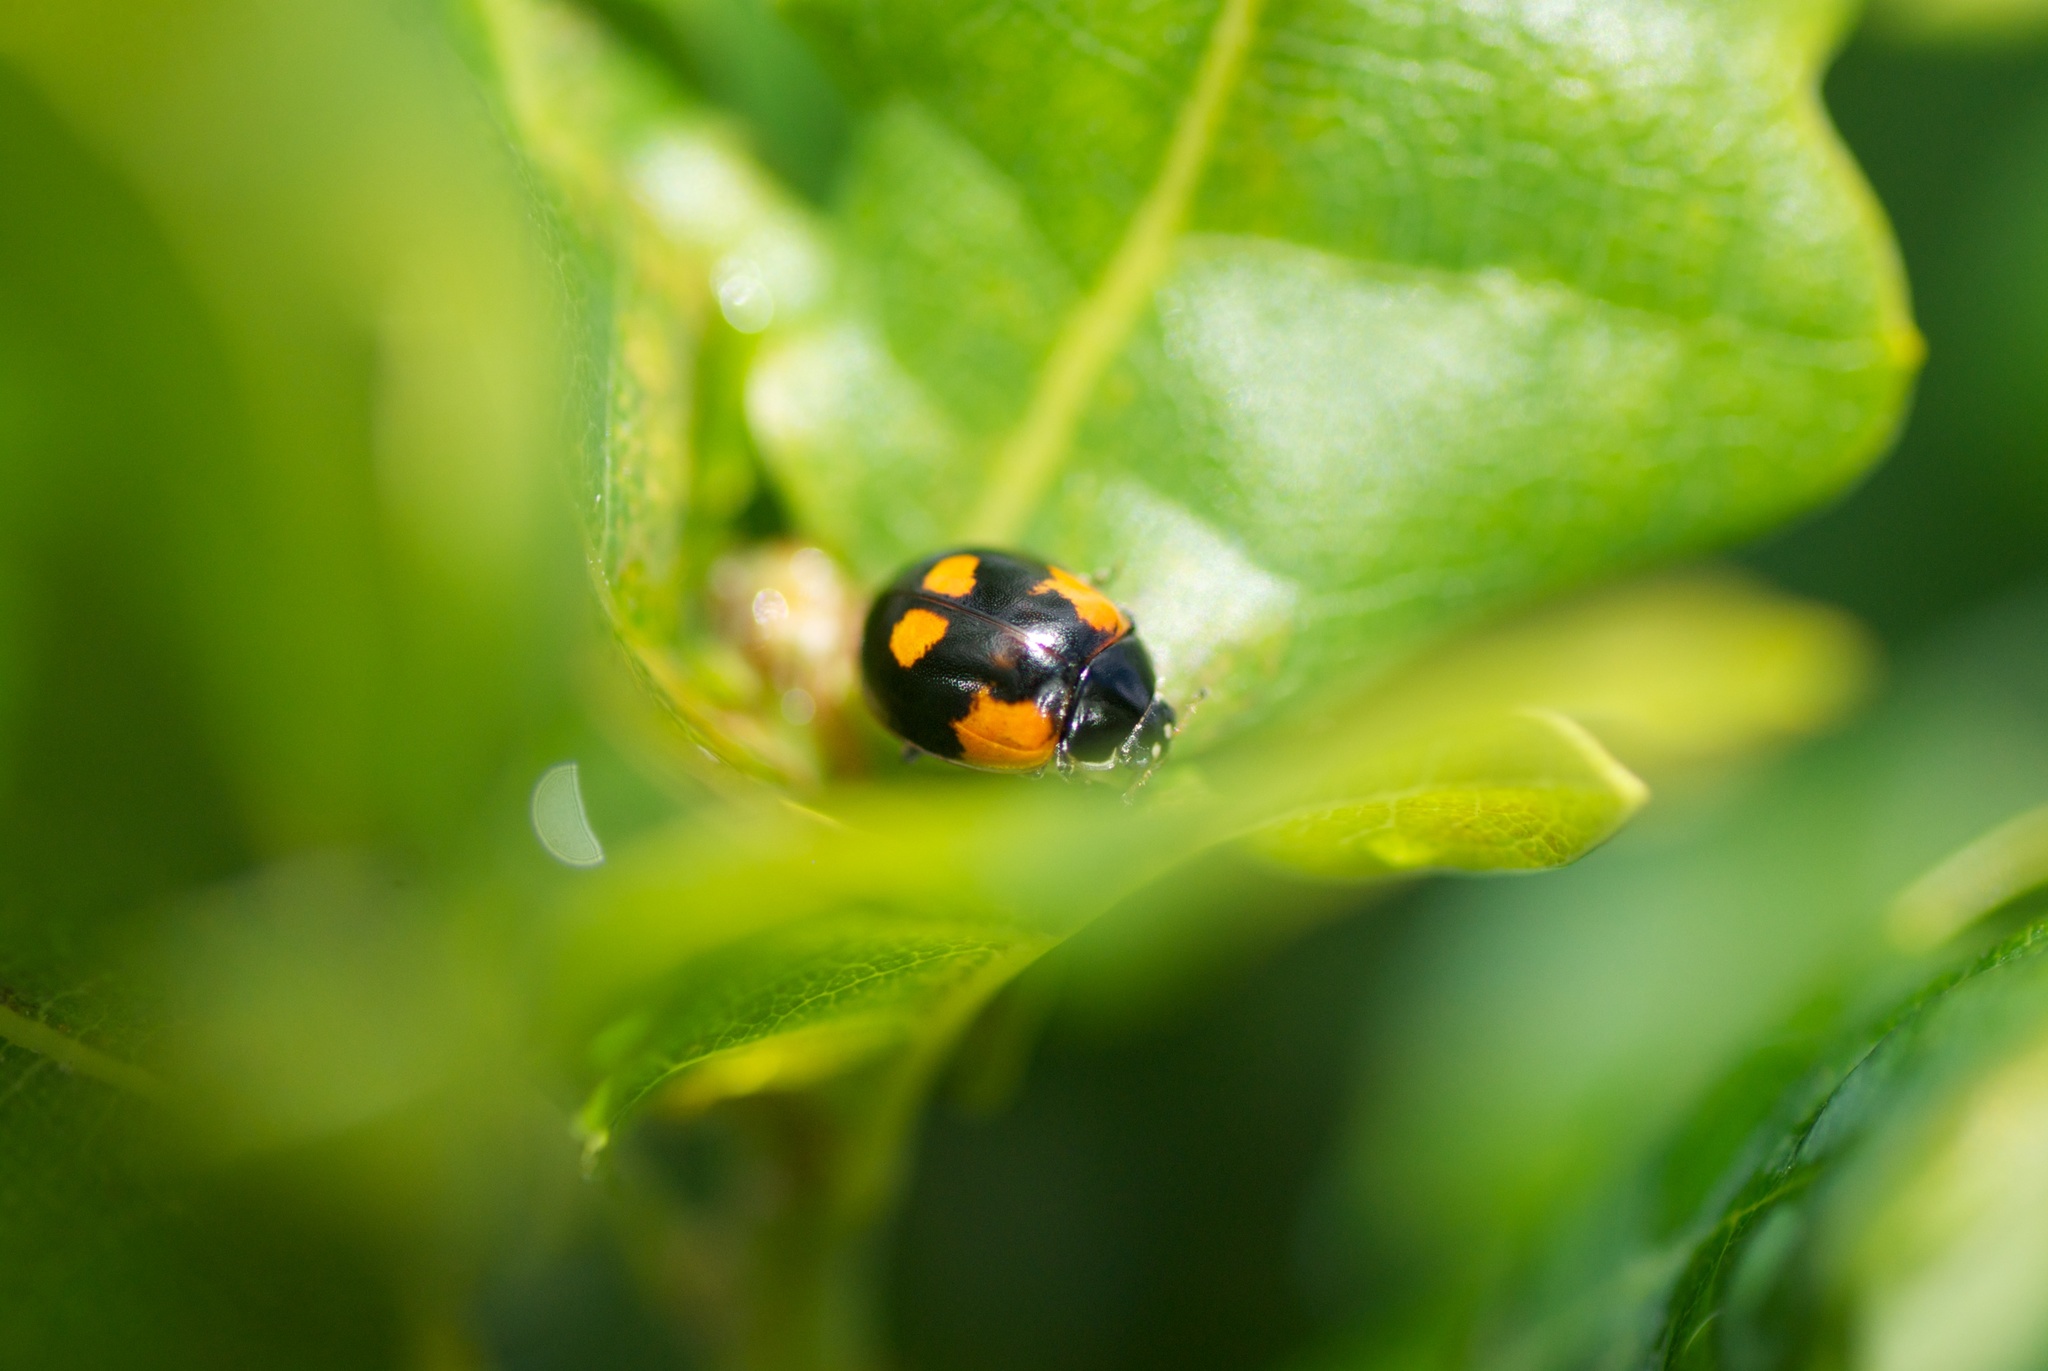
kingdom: Animalia
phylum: Arthropoda
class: Insecta
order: Coleoptera
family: Coccinellidae
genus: Adalia
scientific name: Adalia bipunctata
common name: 2-spot ladybird
